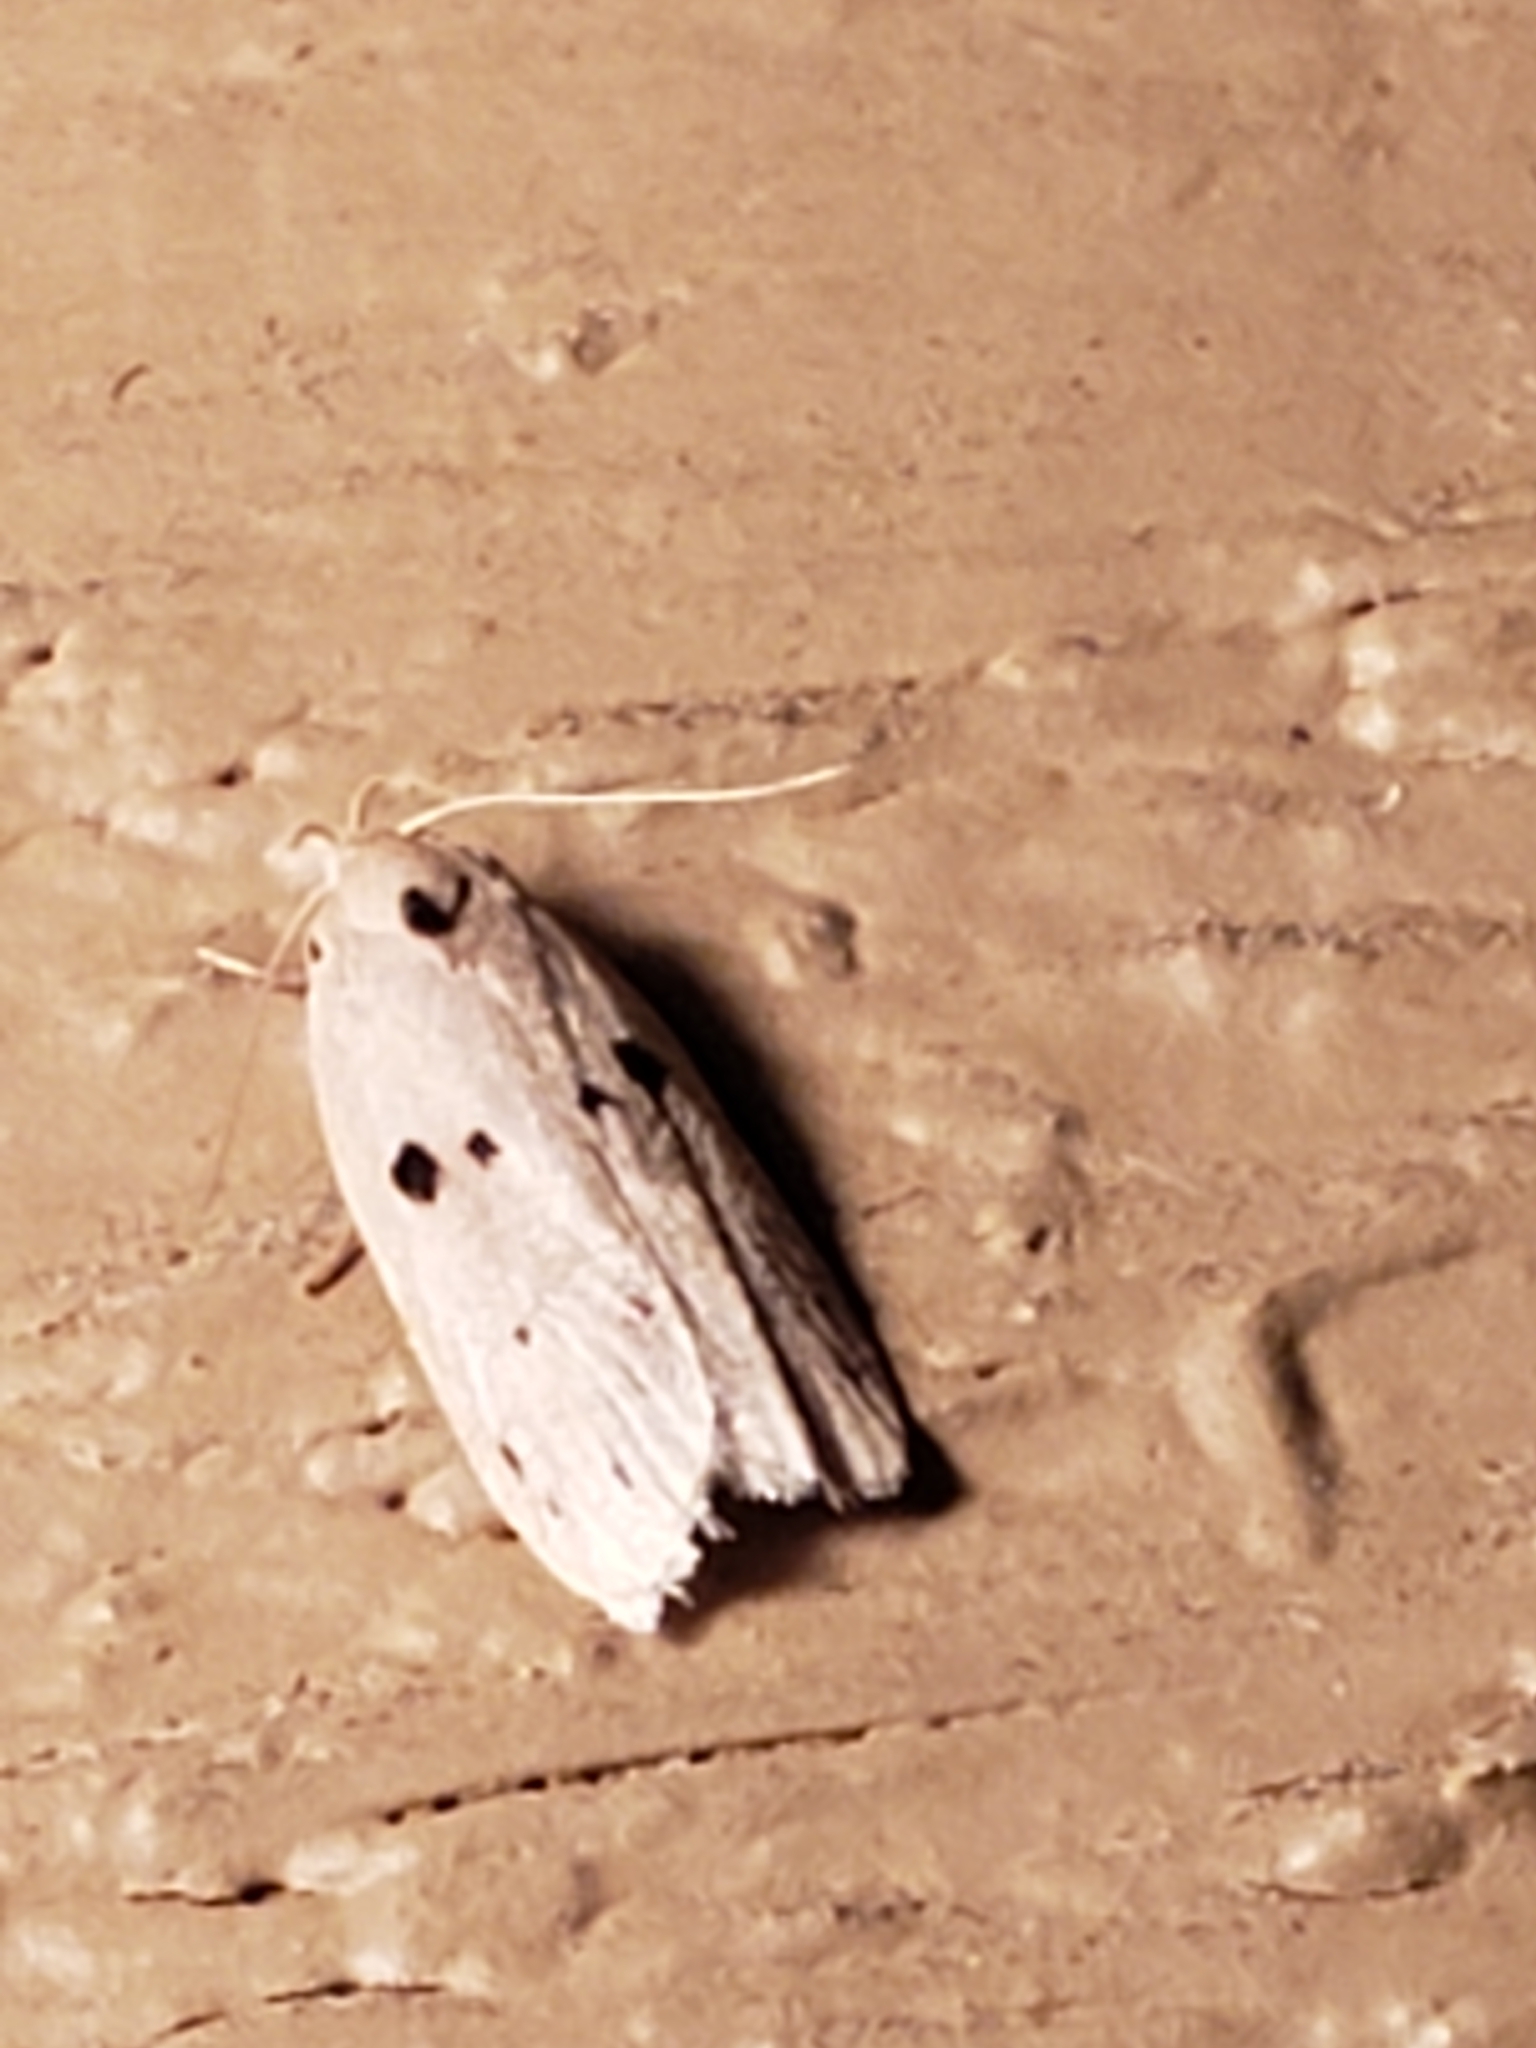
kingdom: Animalia
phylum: Arthropoda
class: Insecta
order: Lepidoptera
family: Peleopodidae
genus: Scythropiodes
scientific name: Scythropiodes issikii
